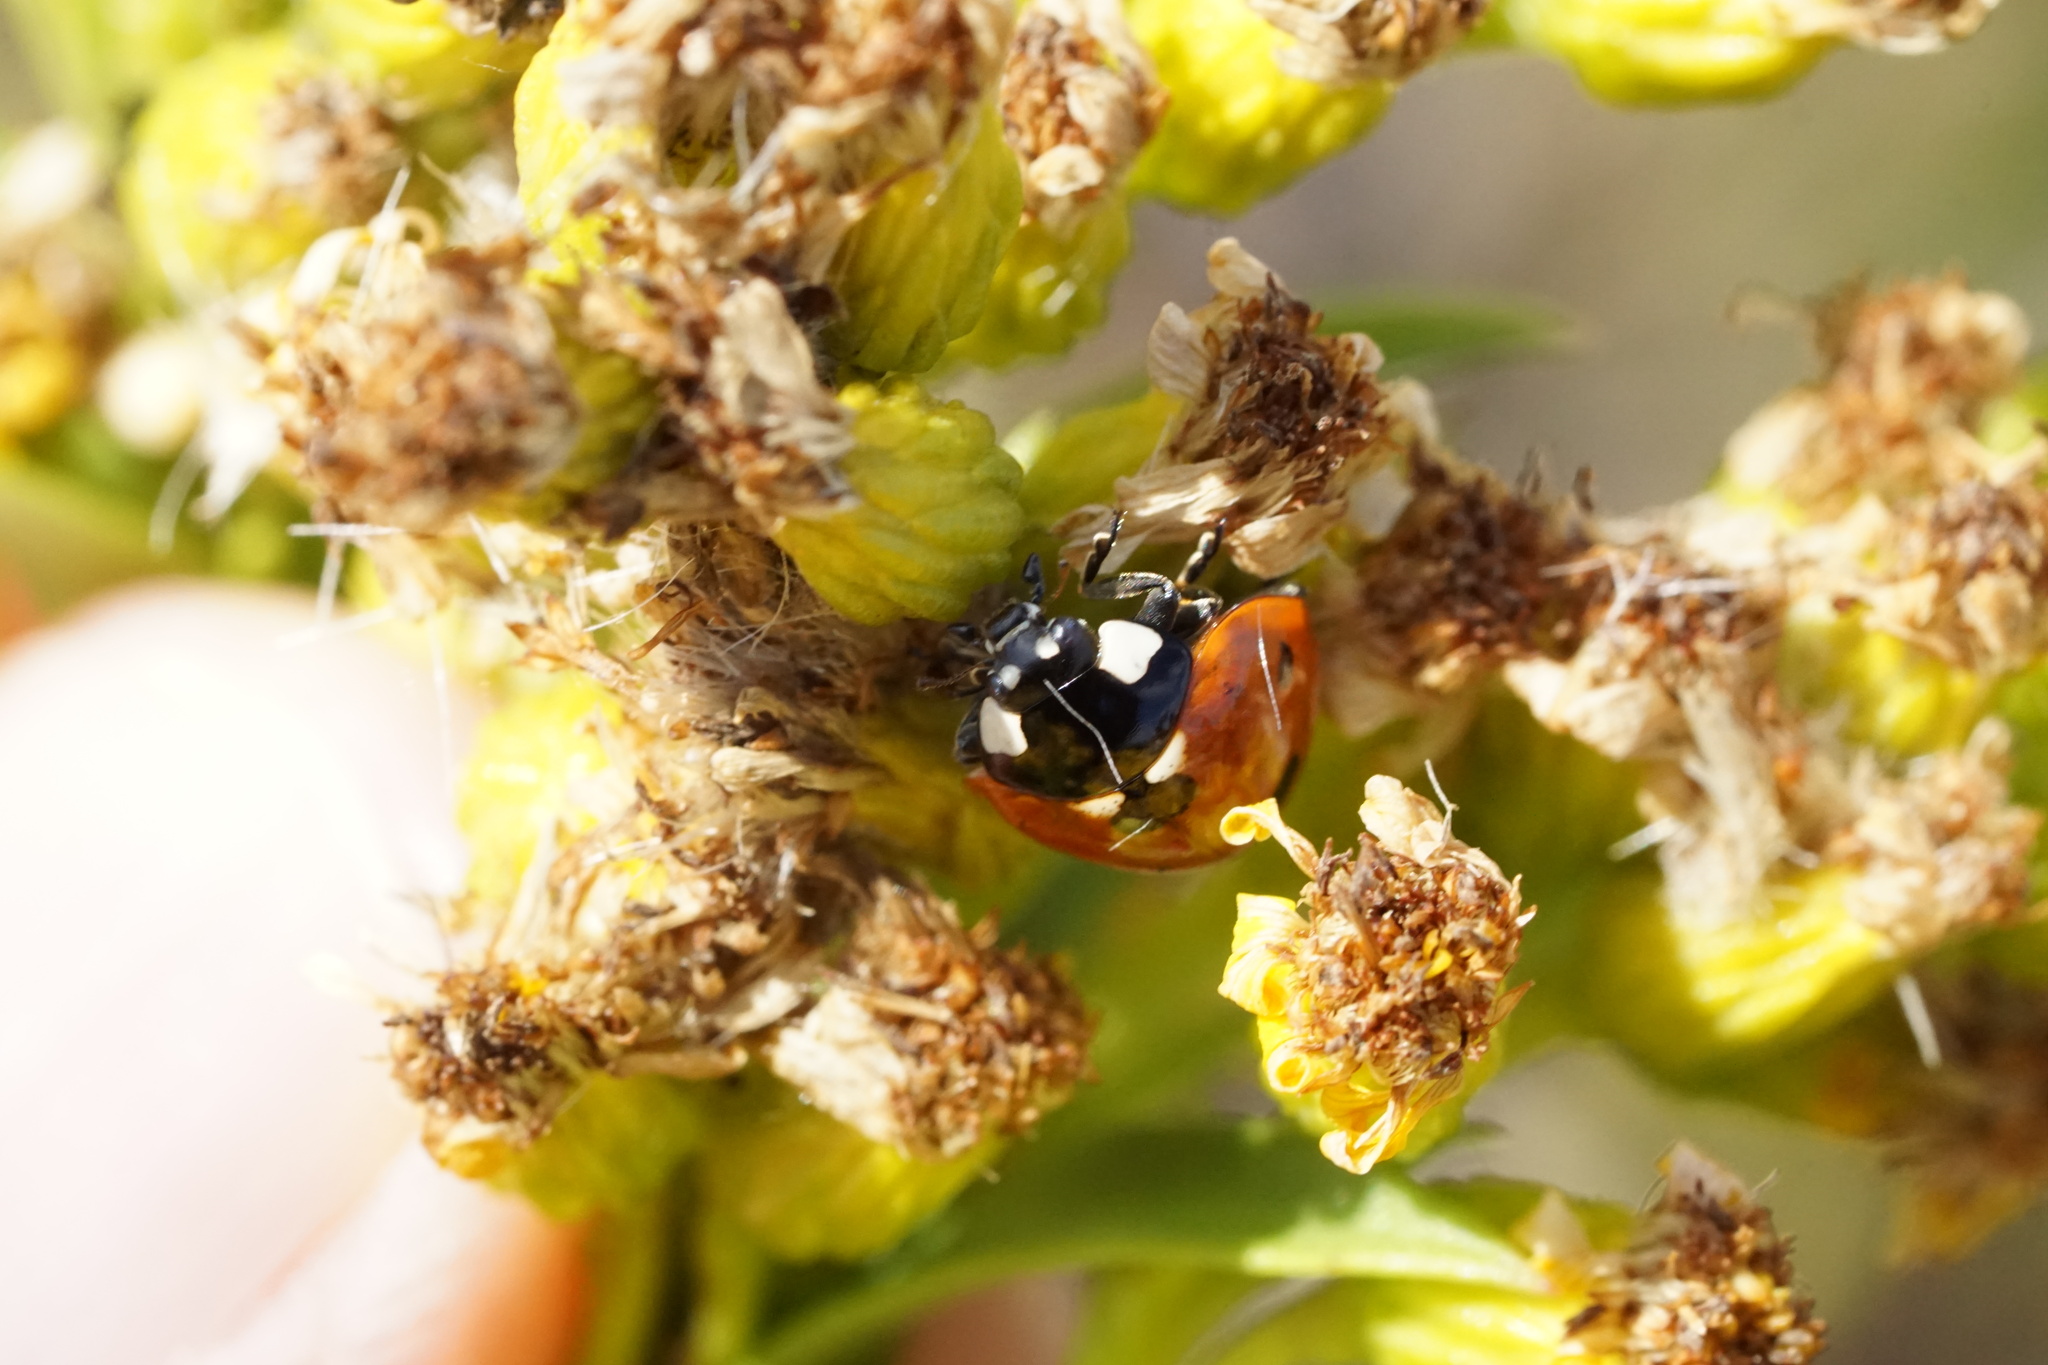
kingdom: Animalia
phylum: Arthropoda
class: Insecta
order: Coleoptera
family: Coccinellidae
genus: Coccinella
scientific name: Coccinella septempunctata
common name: Sevenspotted lady beetle
